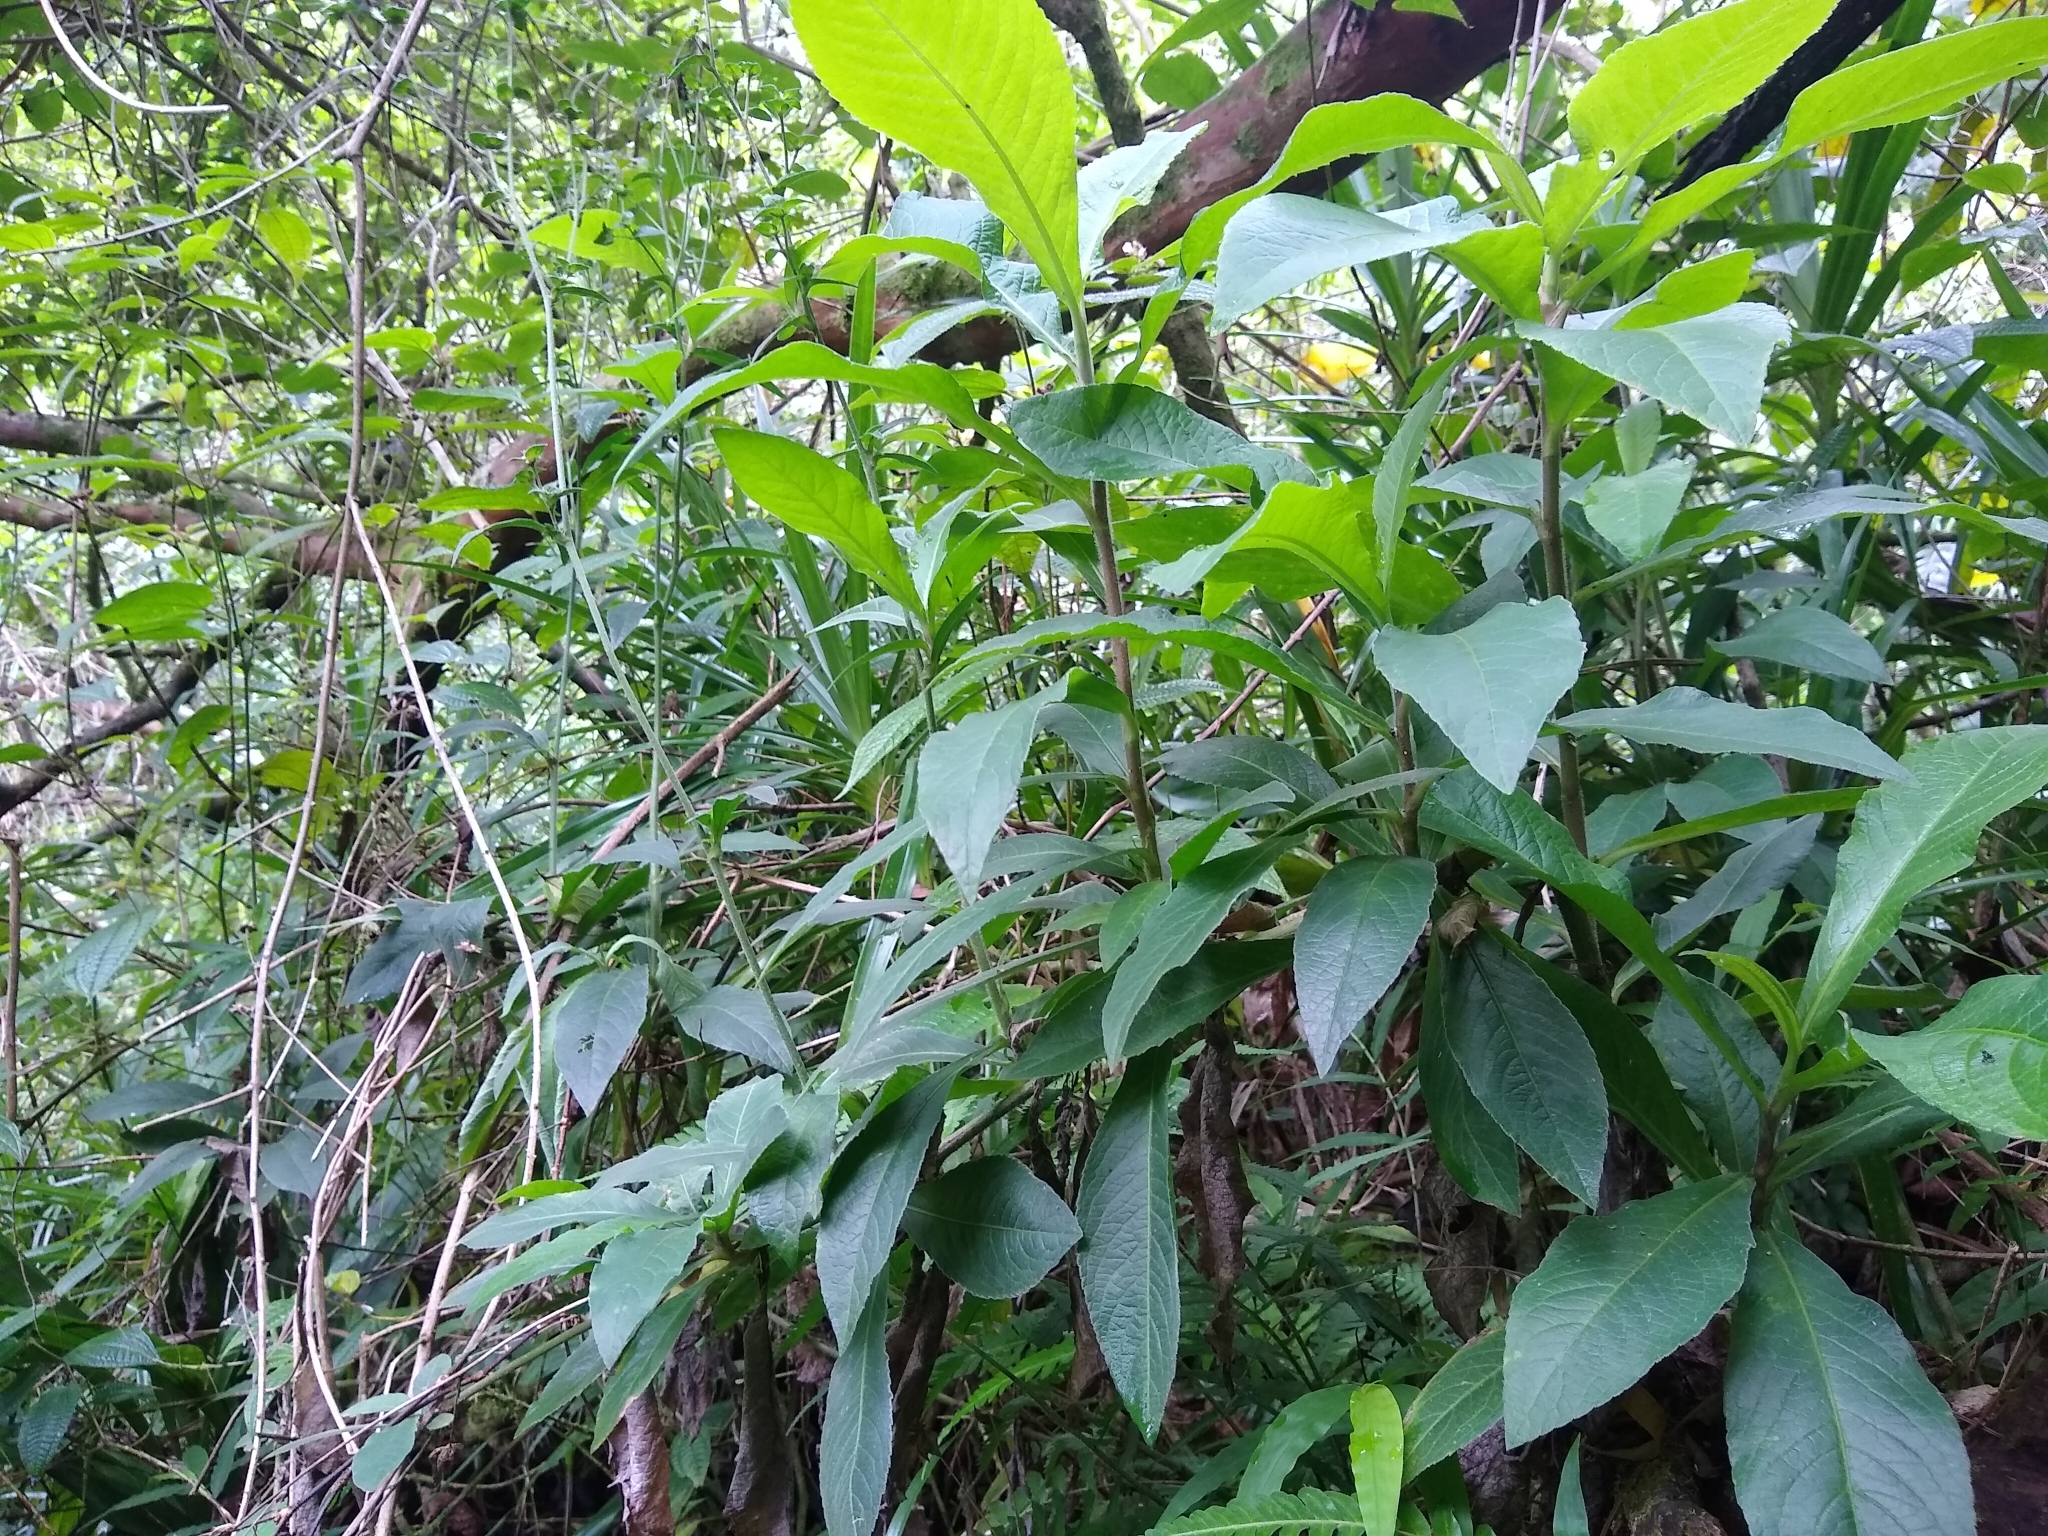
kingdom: Plantae
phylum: Tracheophyta
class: Magnoliopsida
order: Asterales
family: Asteraceae
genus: Elephantopus
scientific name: Elephantopus mollis
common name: Soft elephantsfoot
